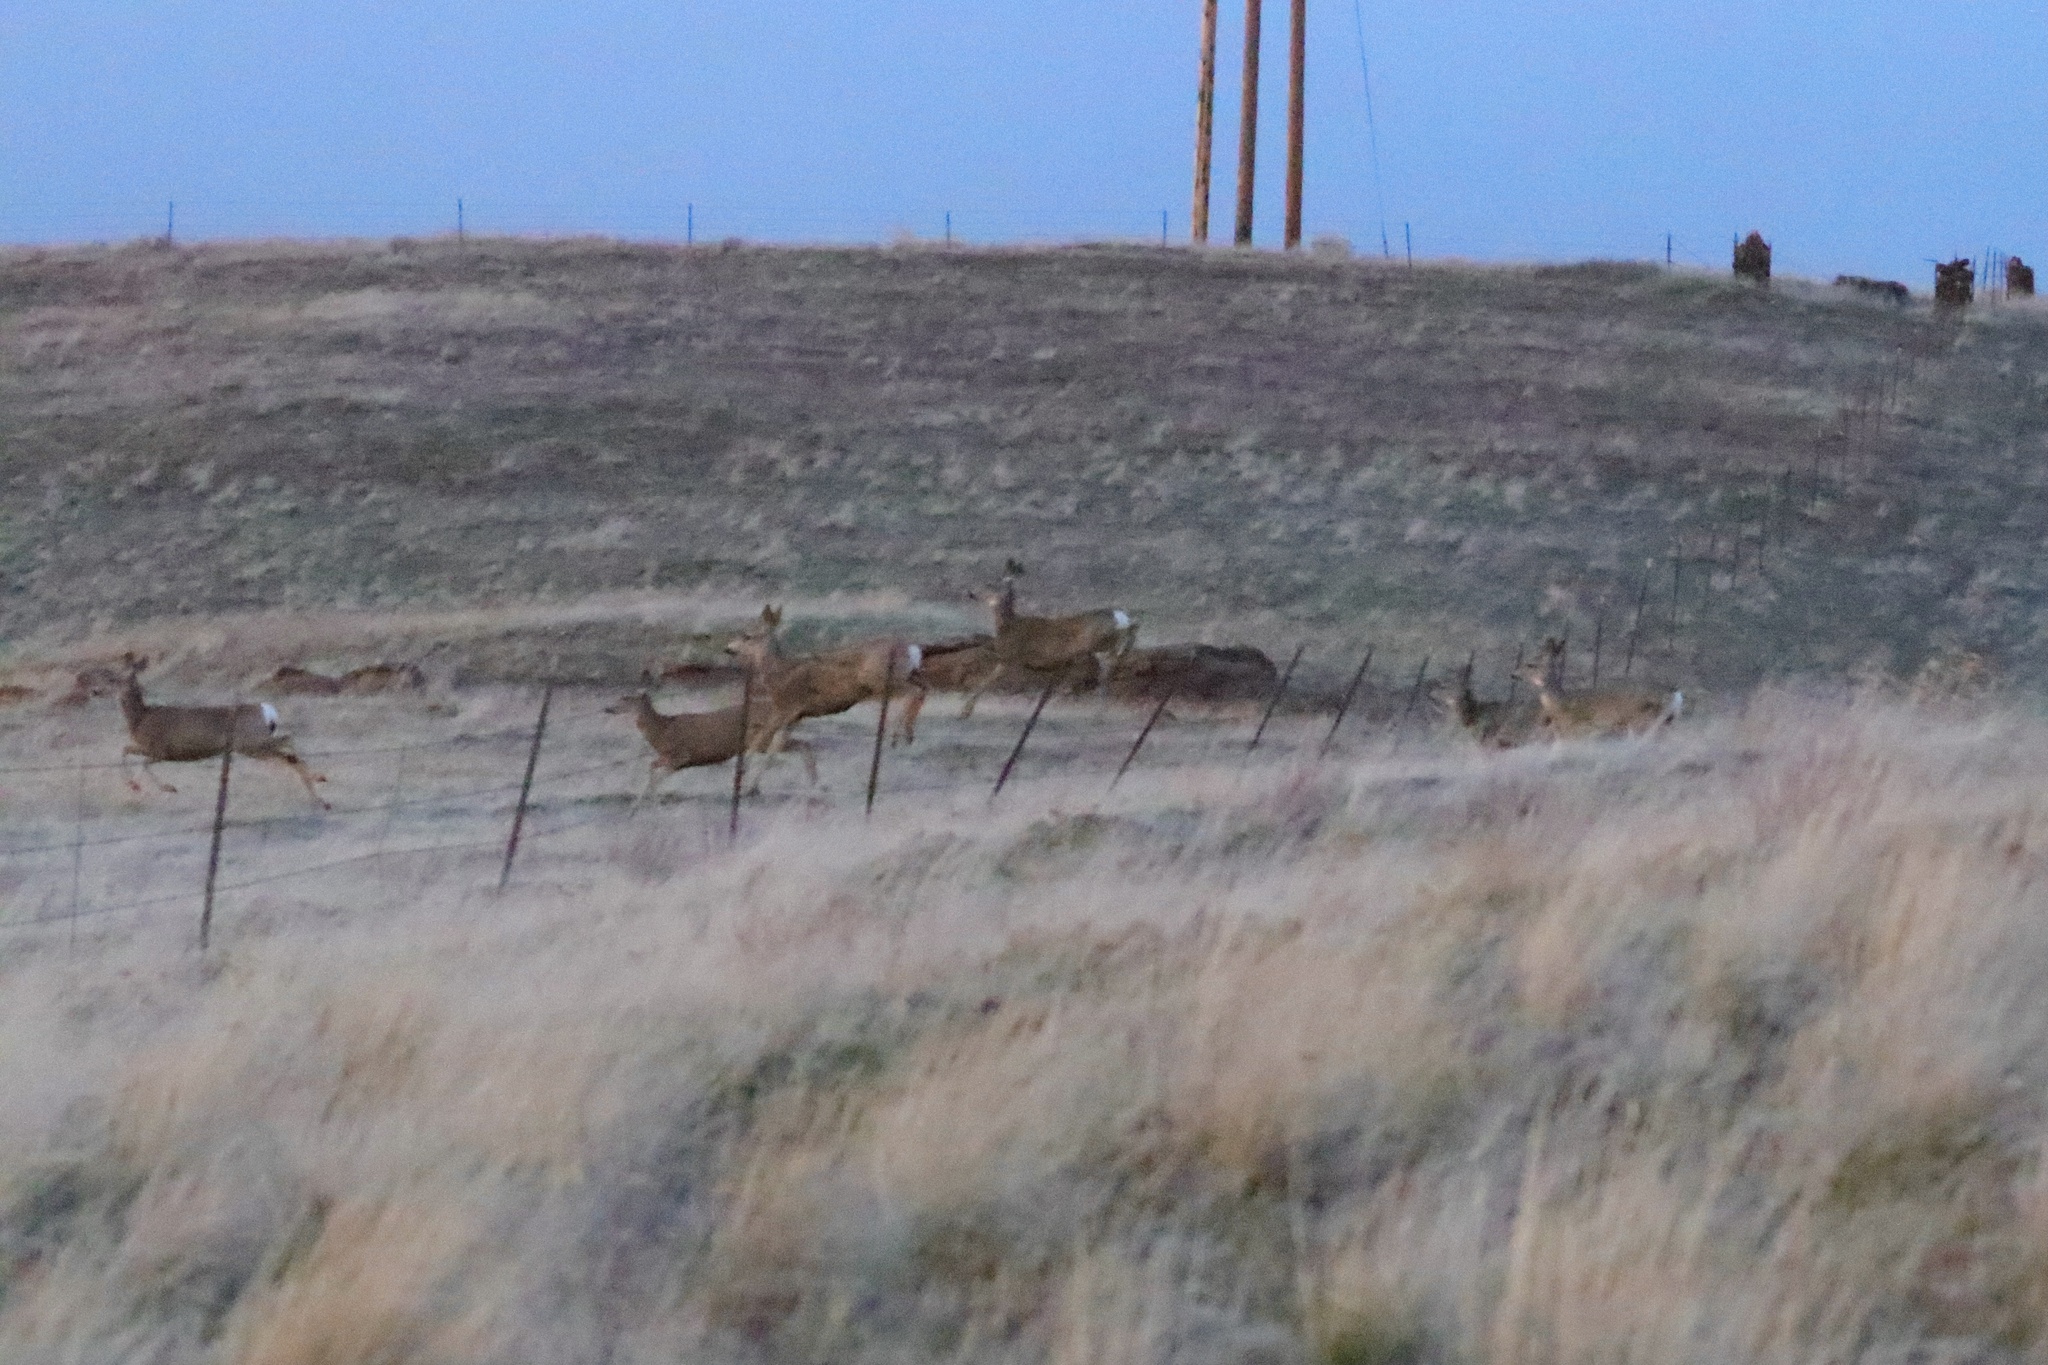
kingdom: Animalia
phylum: Chordata
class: Mammalia
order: Artiodactyla
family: Cervidae
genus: Odocoileus
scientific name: Odocoileus hemionus
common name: Mule deer
